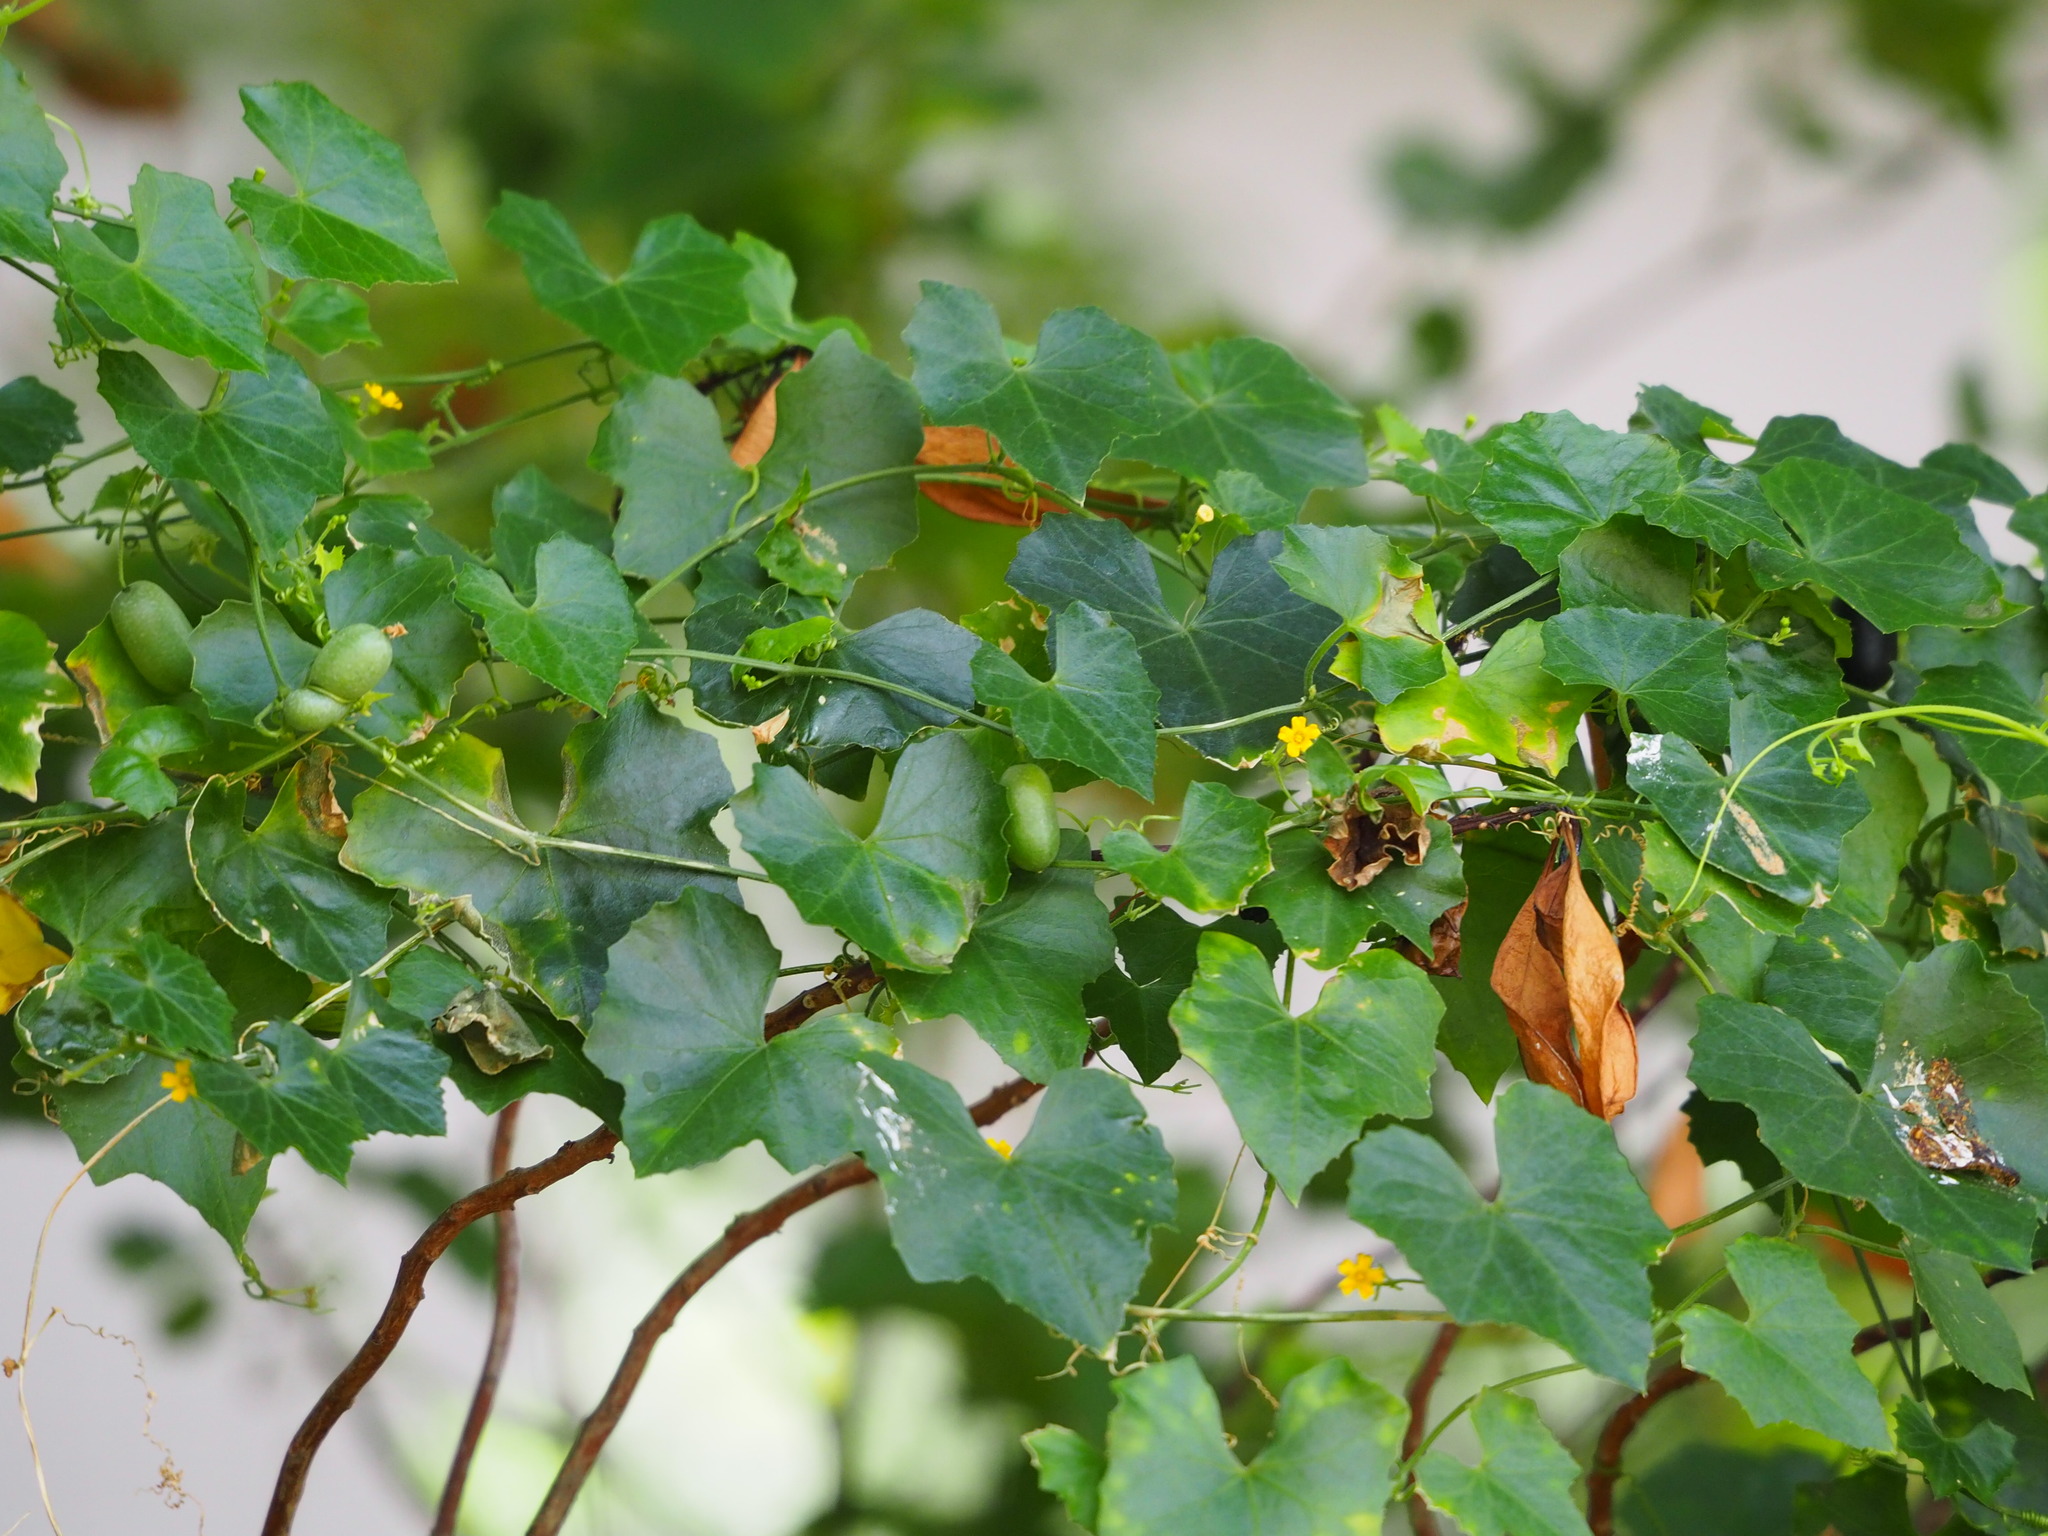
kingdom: Plantae
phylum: Tracheophyta
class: Magnoliopsida
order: Cucurbitales
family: Cucurbitaceae
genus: Melothria
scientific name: Melothria pendula
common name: Creeping-cucumber
